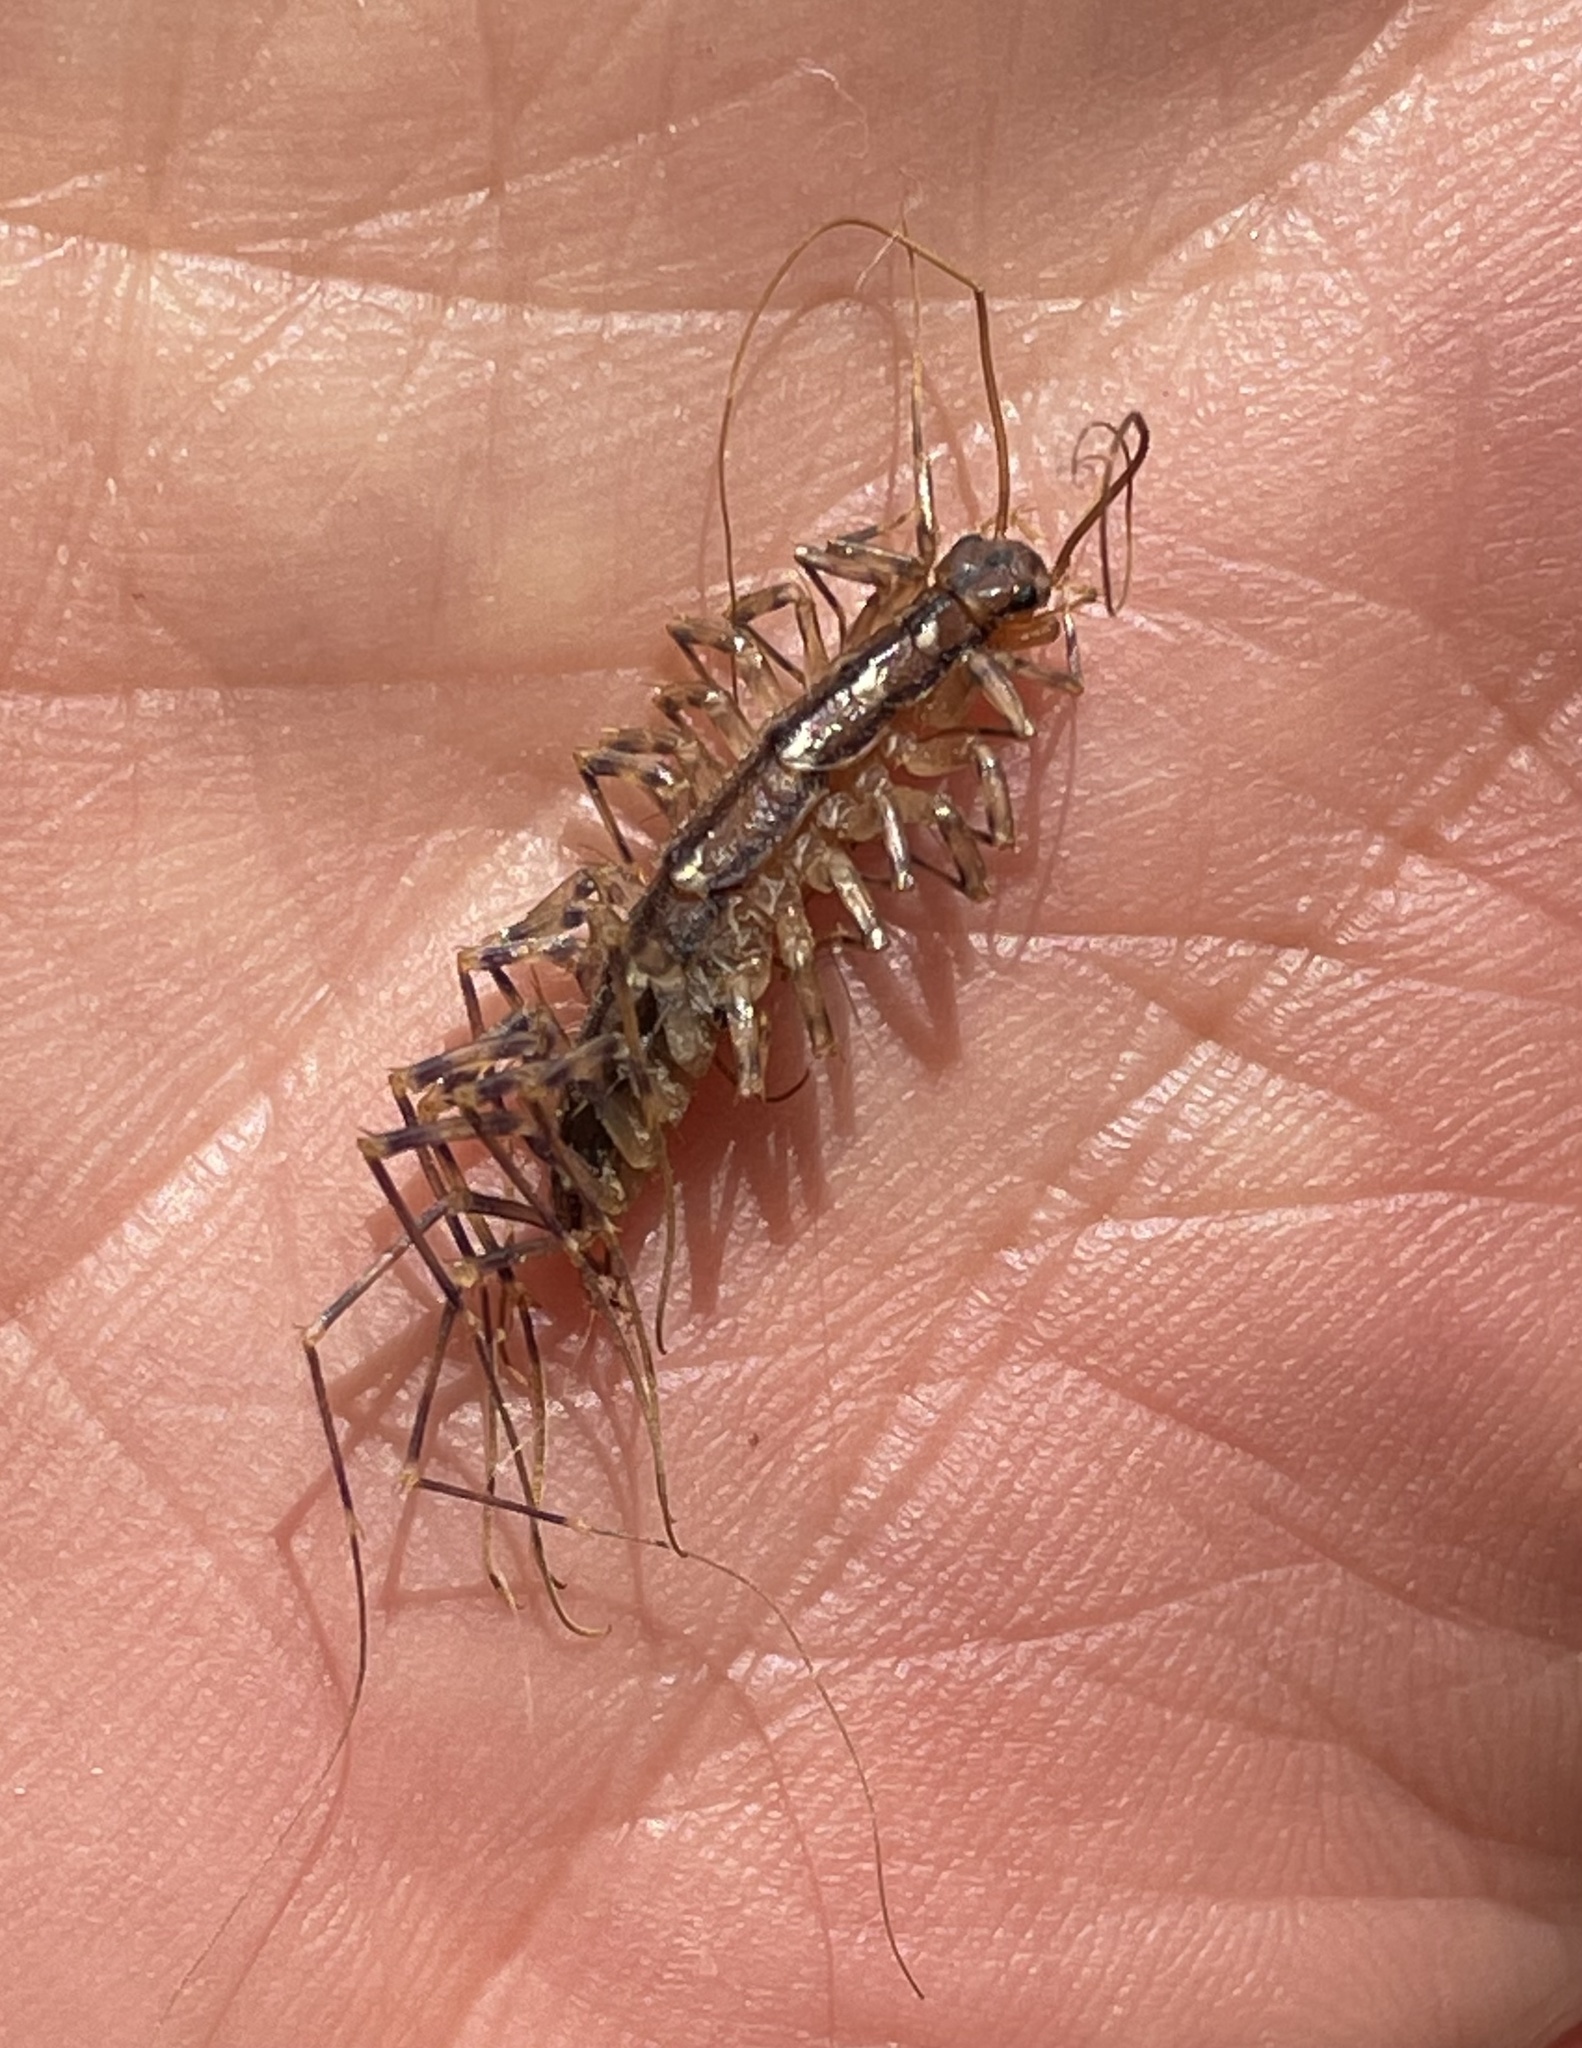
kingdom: Animalia
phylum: Arthropoda
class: Chilopoda
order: Scutigeromorpha
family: Scutigeridae
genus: Scutigera
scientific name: Scutigera coleoptrata
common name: House centipede
